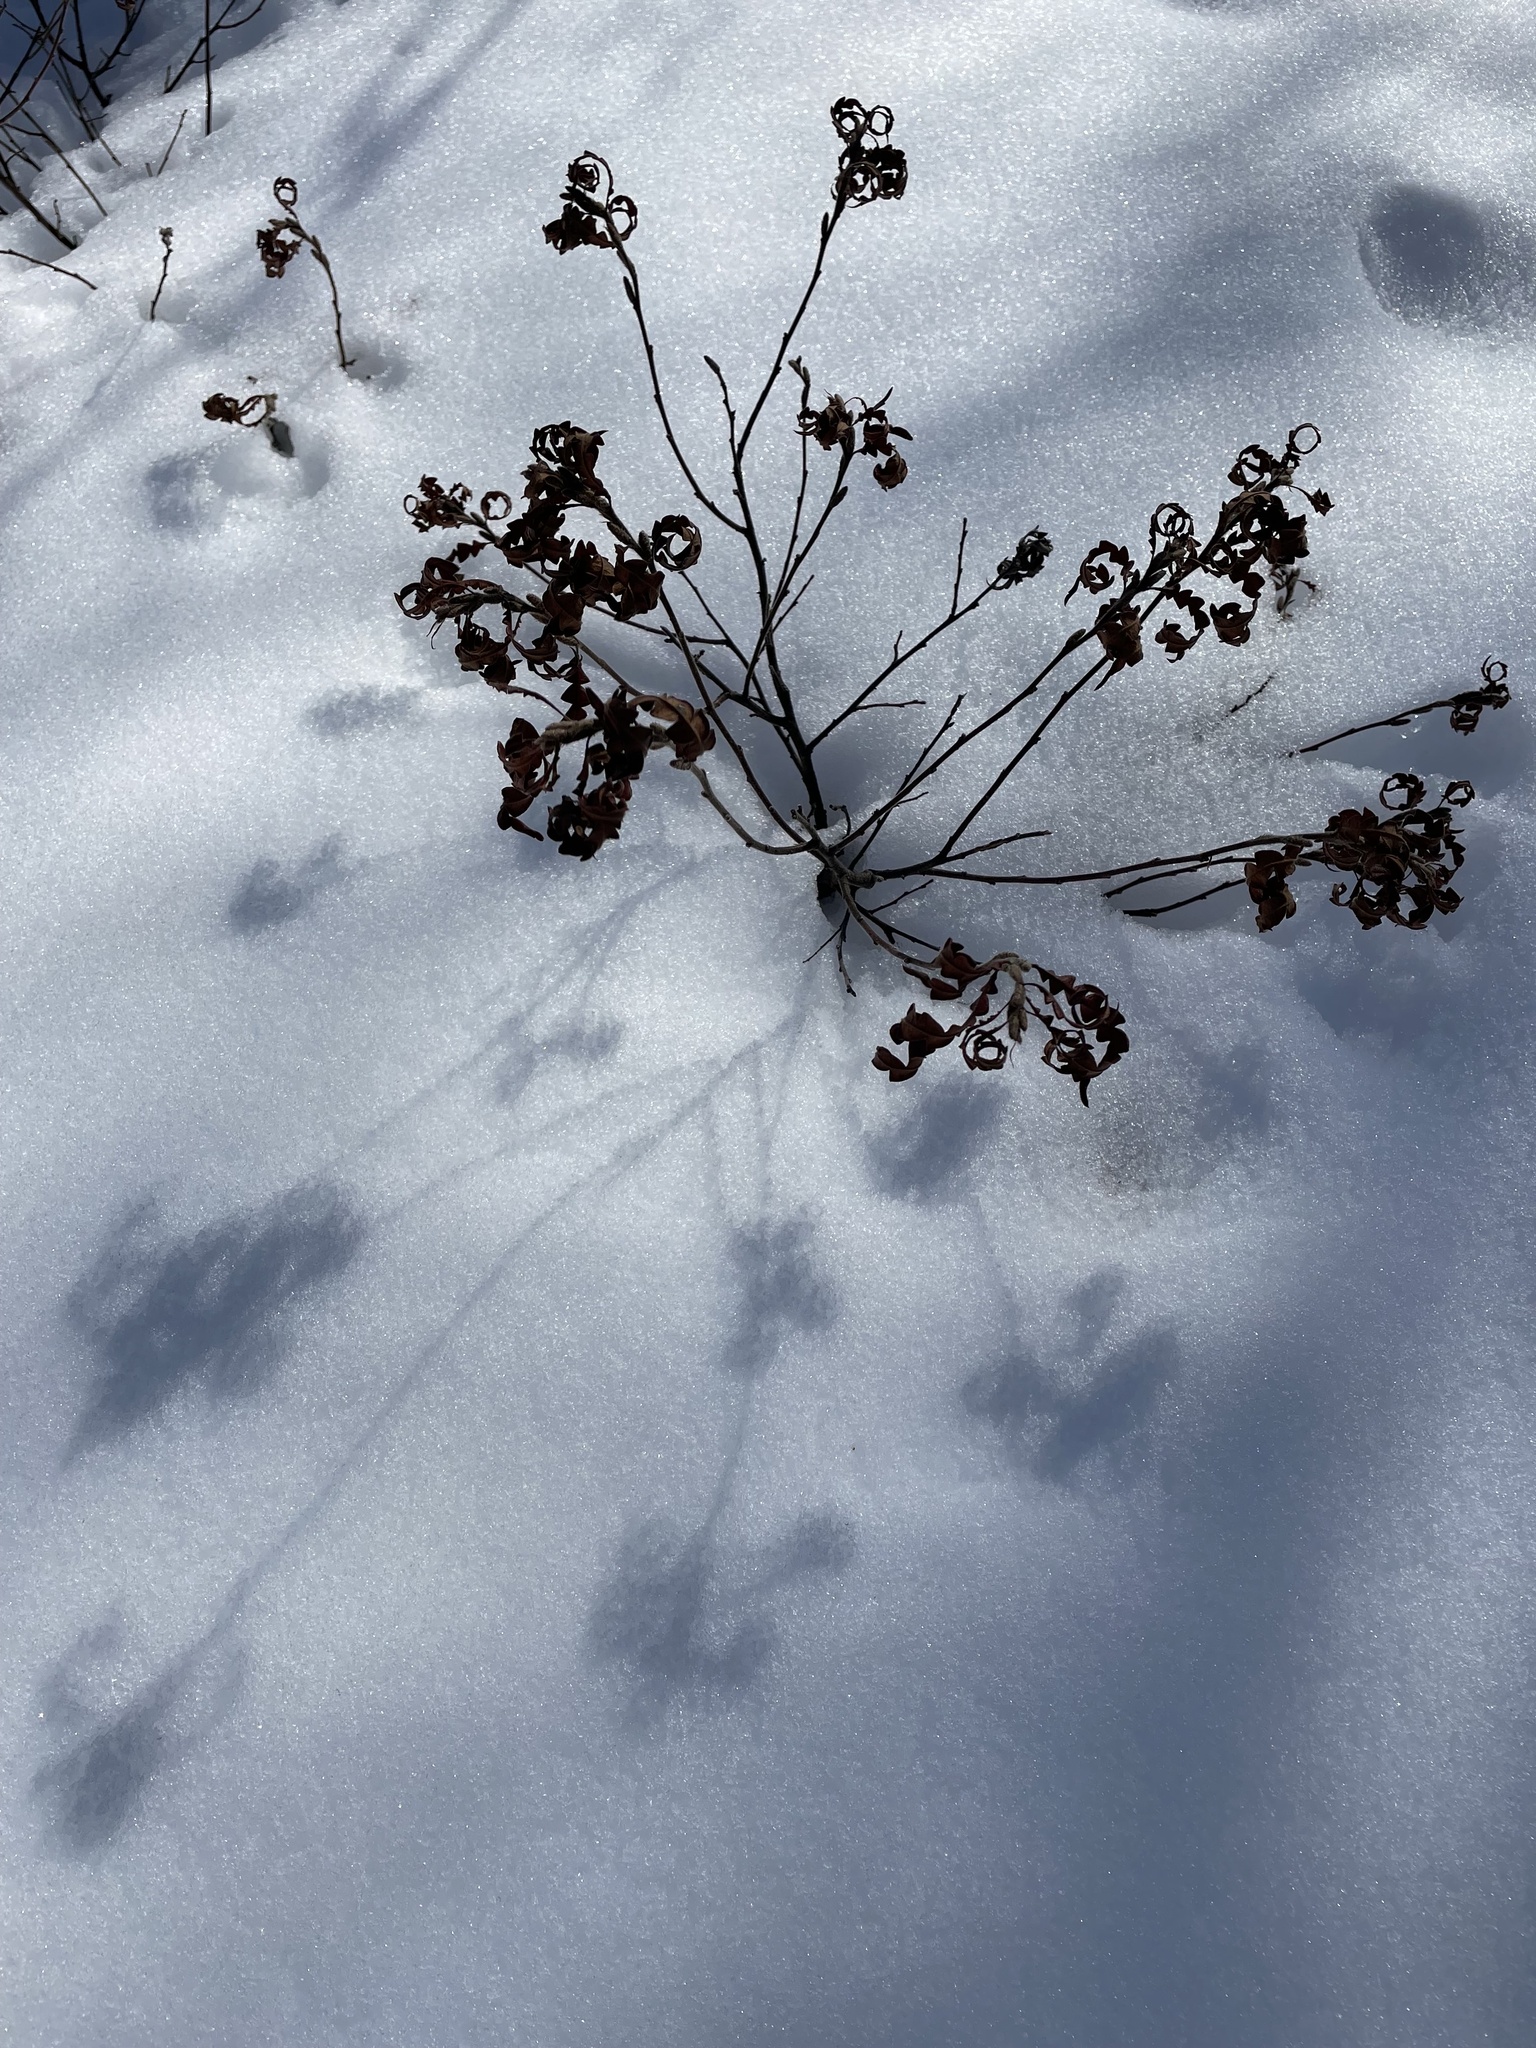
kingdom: Plantae
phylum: Tracheophyta
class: Magnoliopsida
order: Fagales
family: Myricaceae
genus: Comptonia
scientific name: Comptonia peregrina
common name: Sweet-fern
